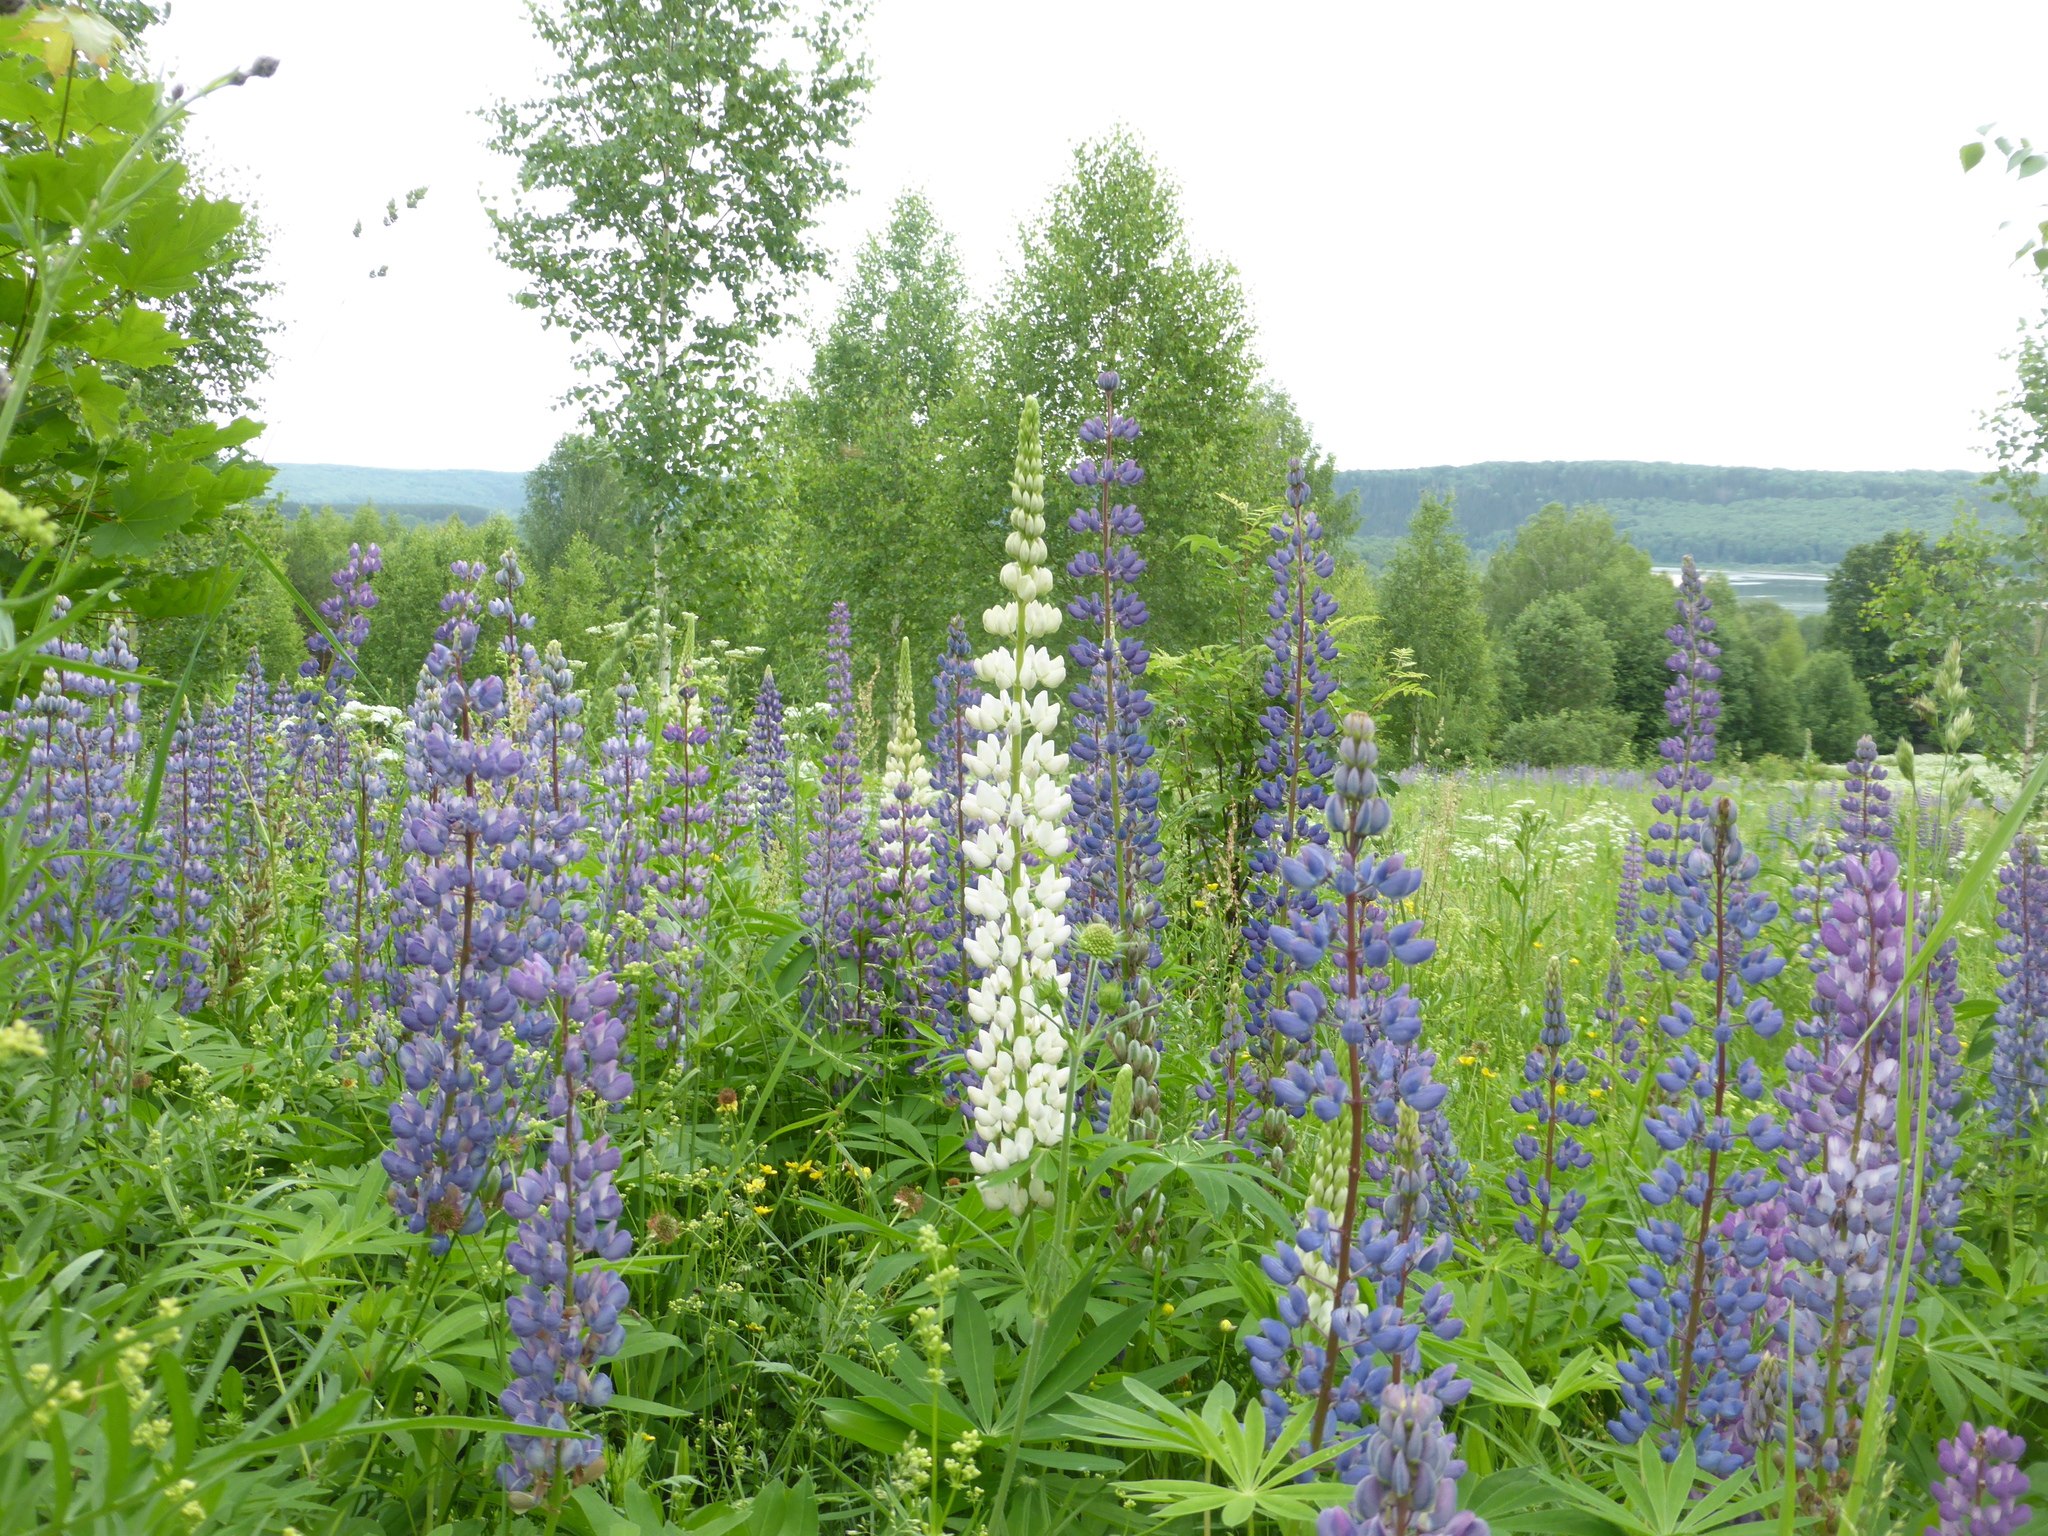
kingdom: Plantae
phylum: Tracheophyta
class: Magnoliopsida
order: Fabales
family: Fabaceae
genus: Lupinus
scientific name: Lupinus polyphyllus
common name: Garden lupin
